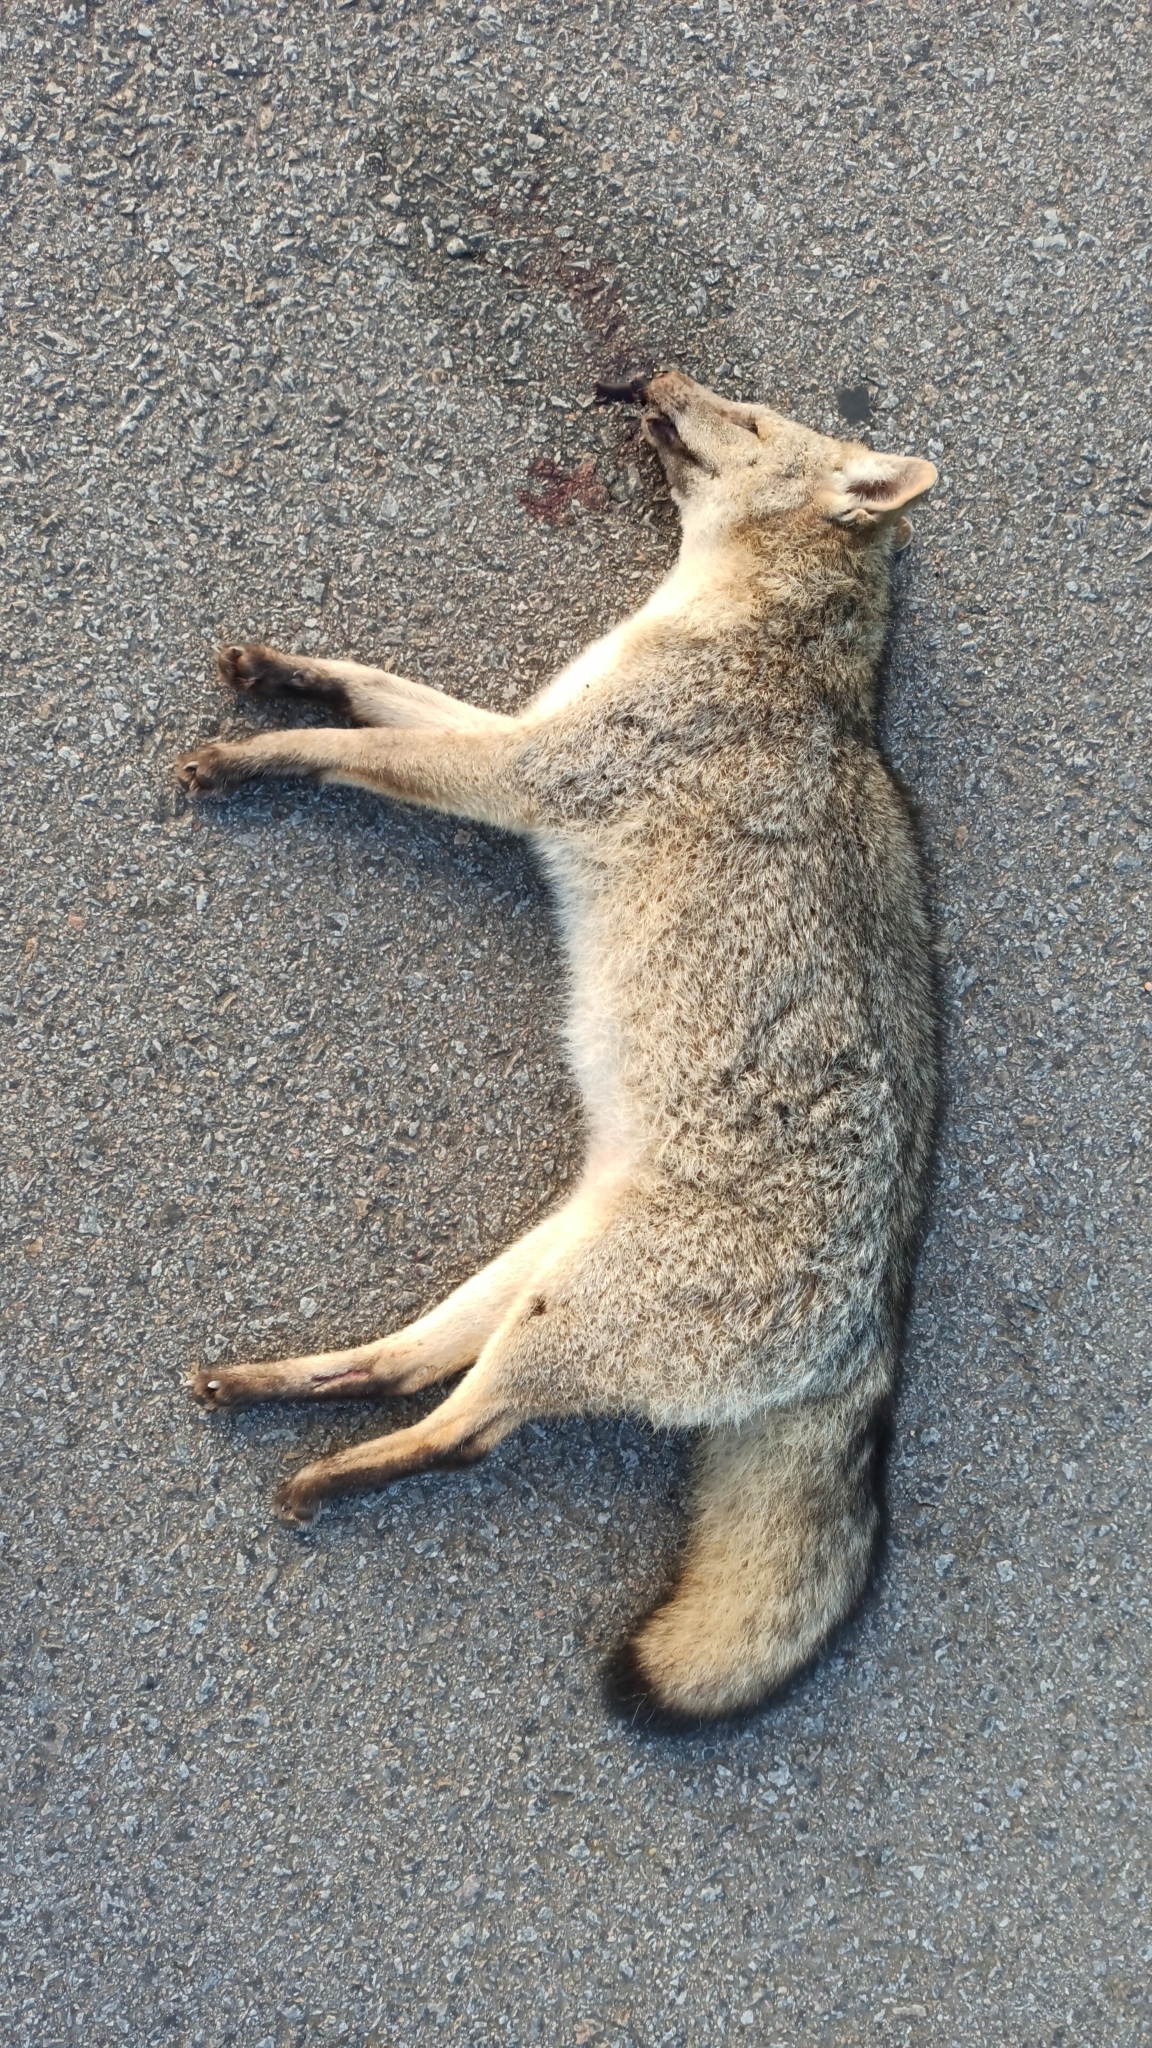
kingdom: Animalia
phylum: Chordata
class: Mammalia
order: Carnivora
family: Canidae
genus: Cerdocyon
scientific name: Cerdocyon thous
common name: Crab-eating fox
